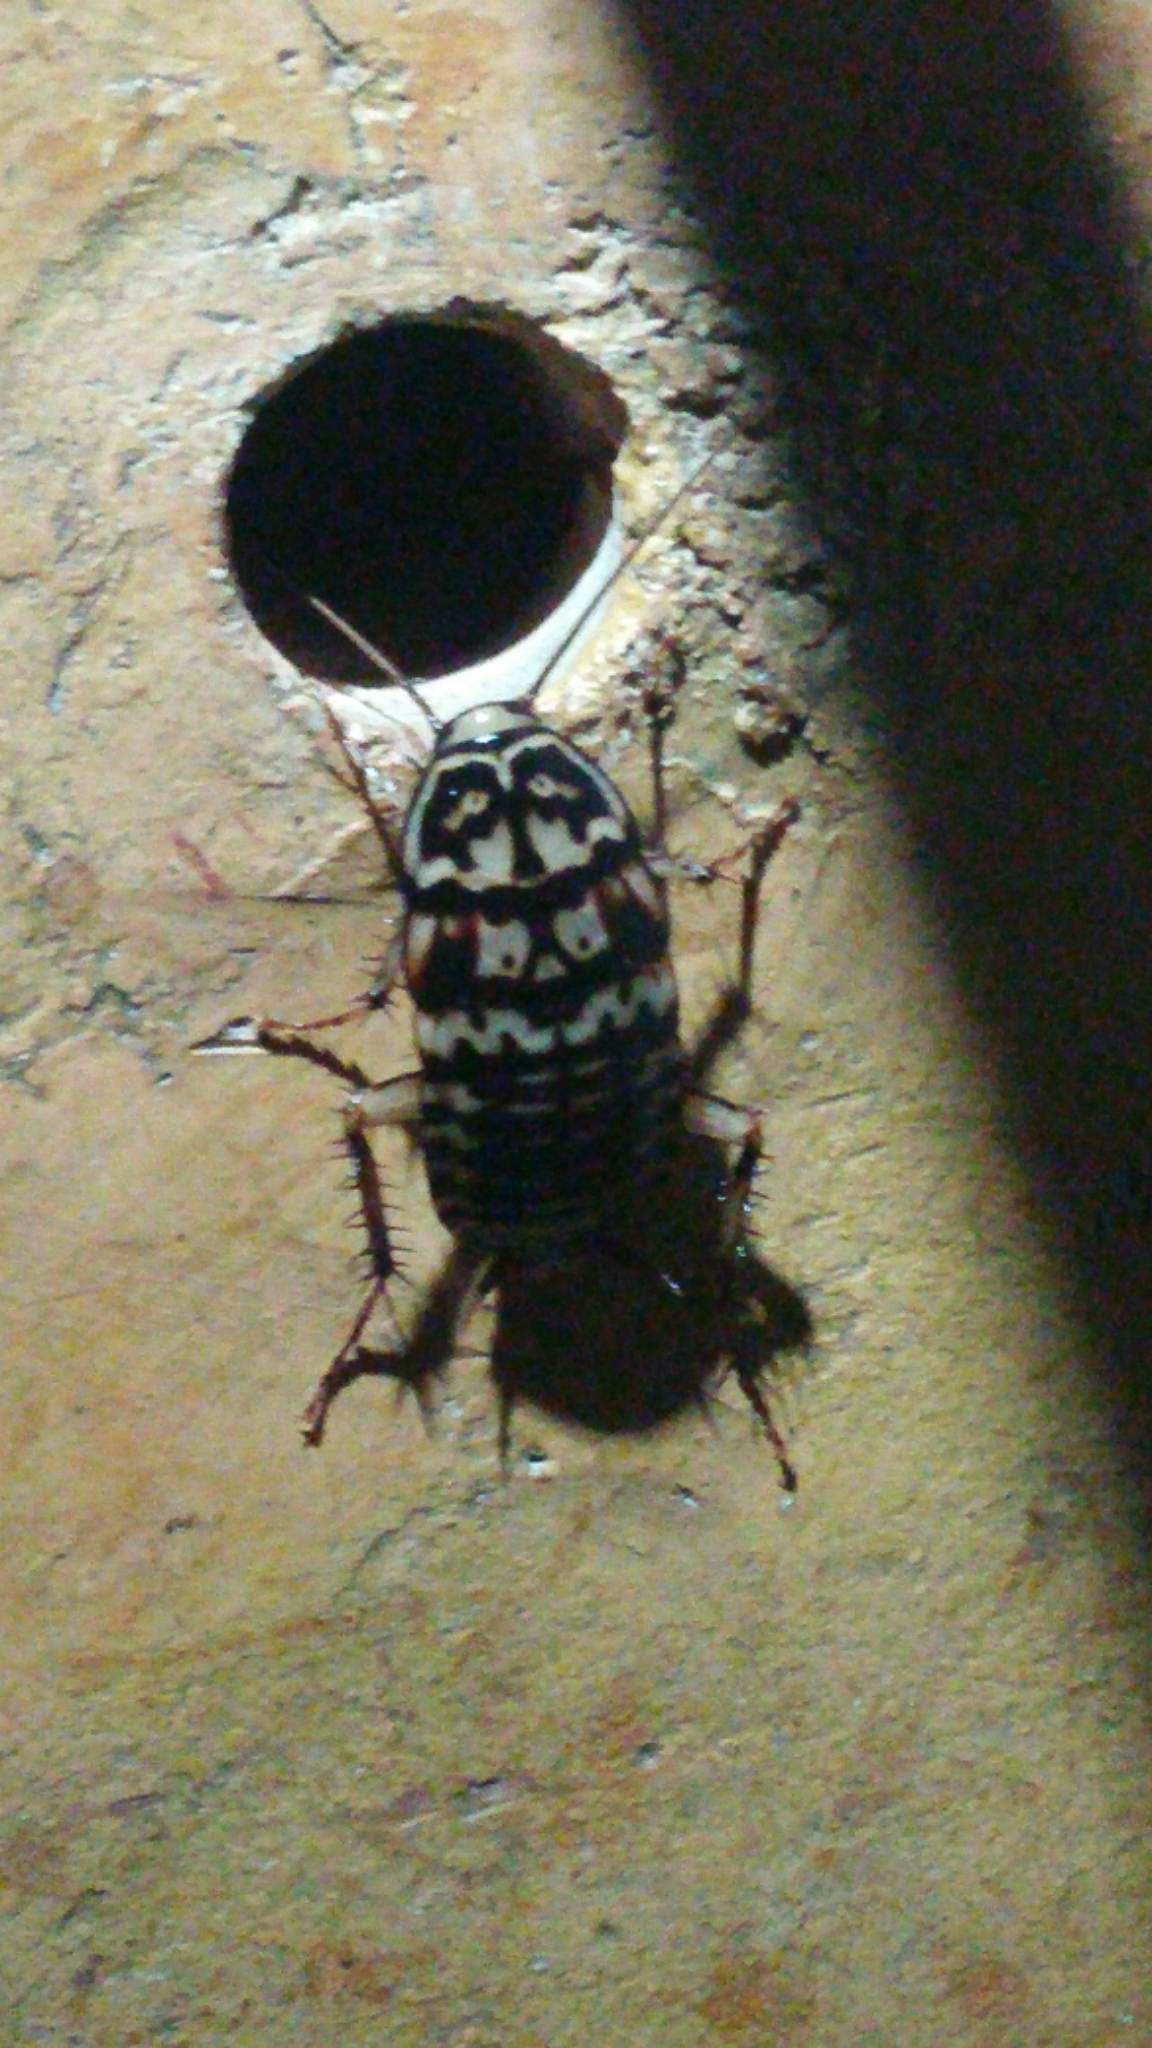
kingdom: Animalia
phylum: Arthropoda
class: Insecta
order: Blattodea
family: Blattidae
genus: Neostylopyga
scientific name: Neostylopyga rhombifolia
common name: Harlequin cockroach
